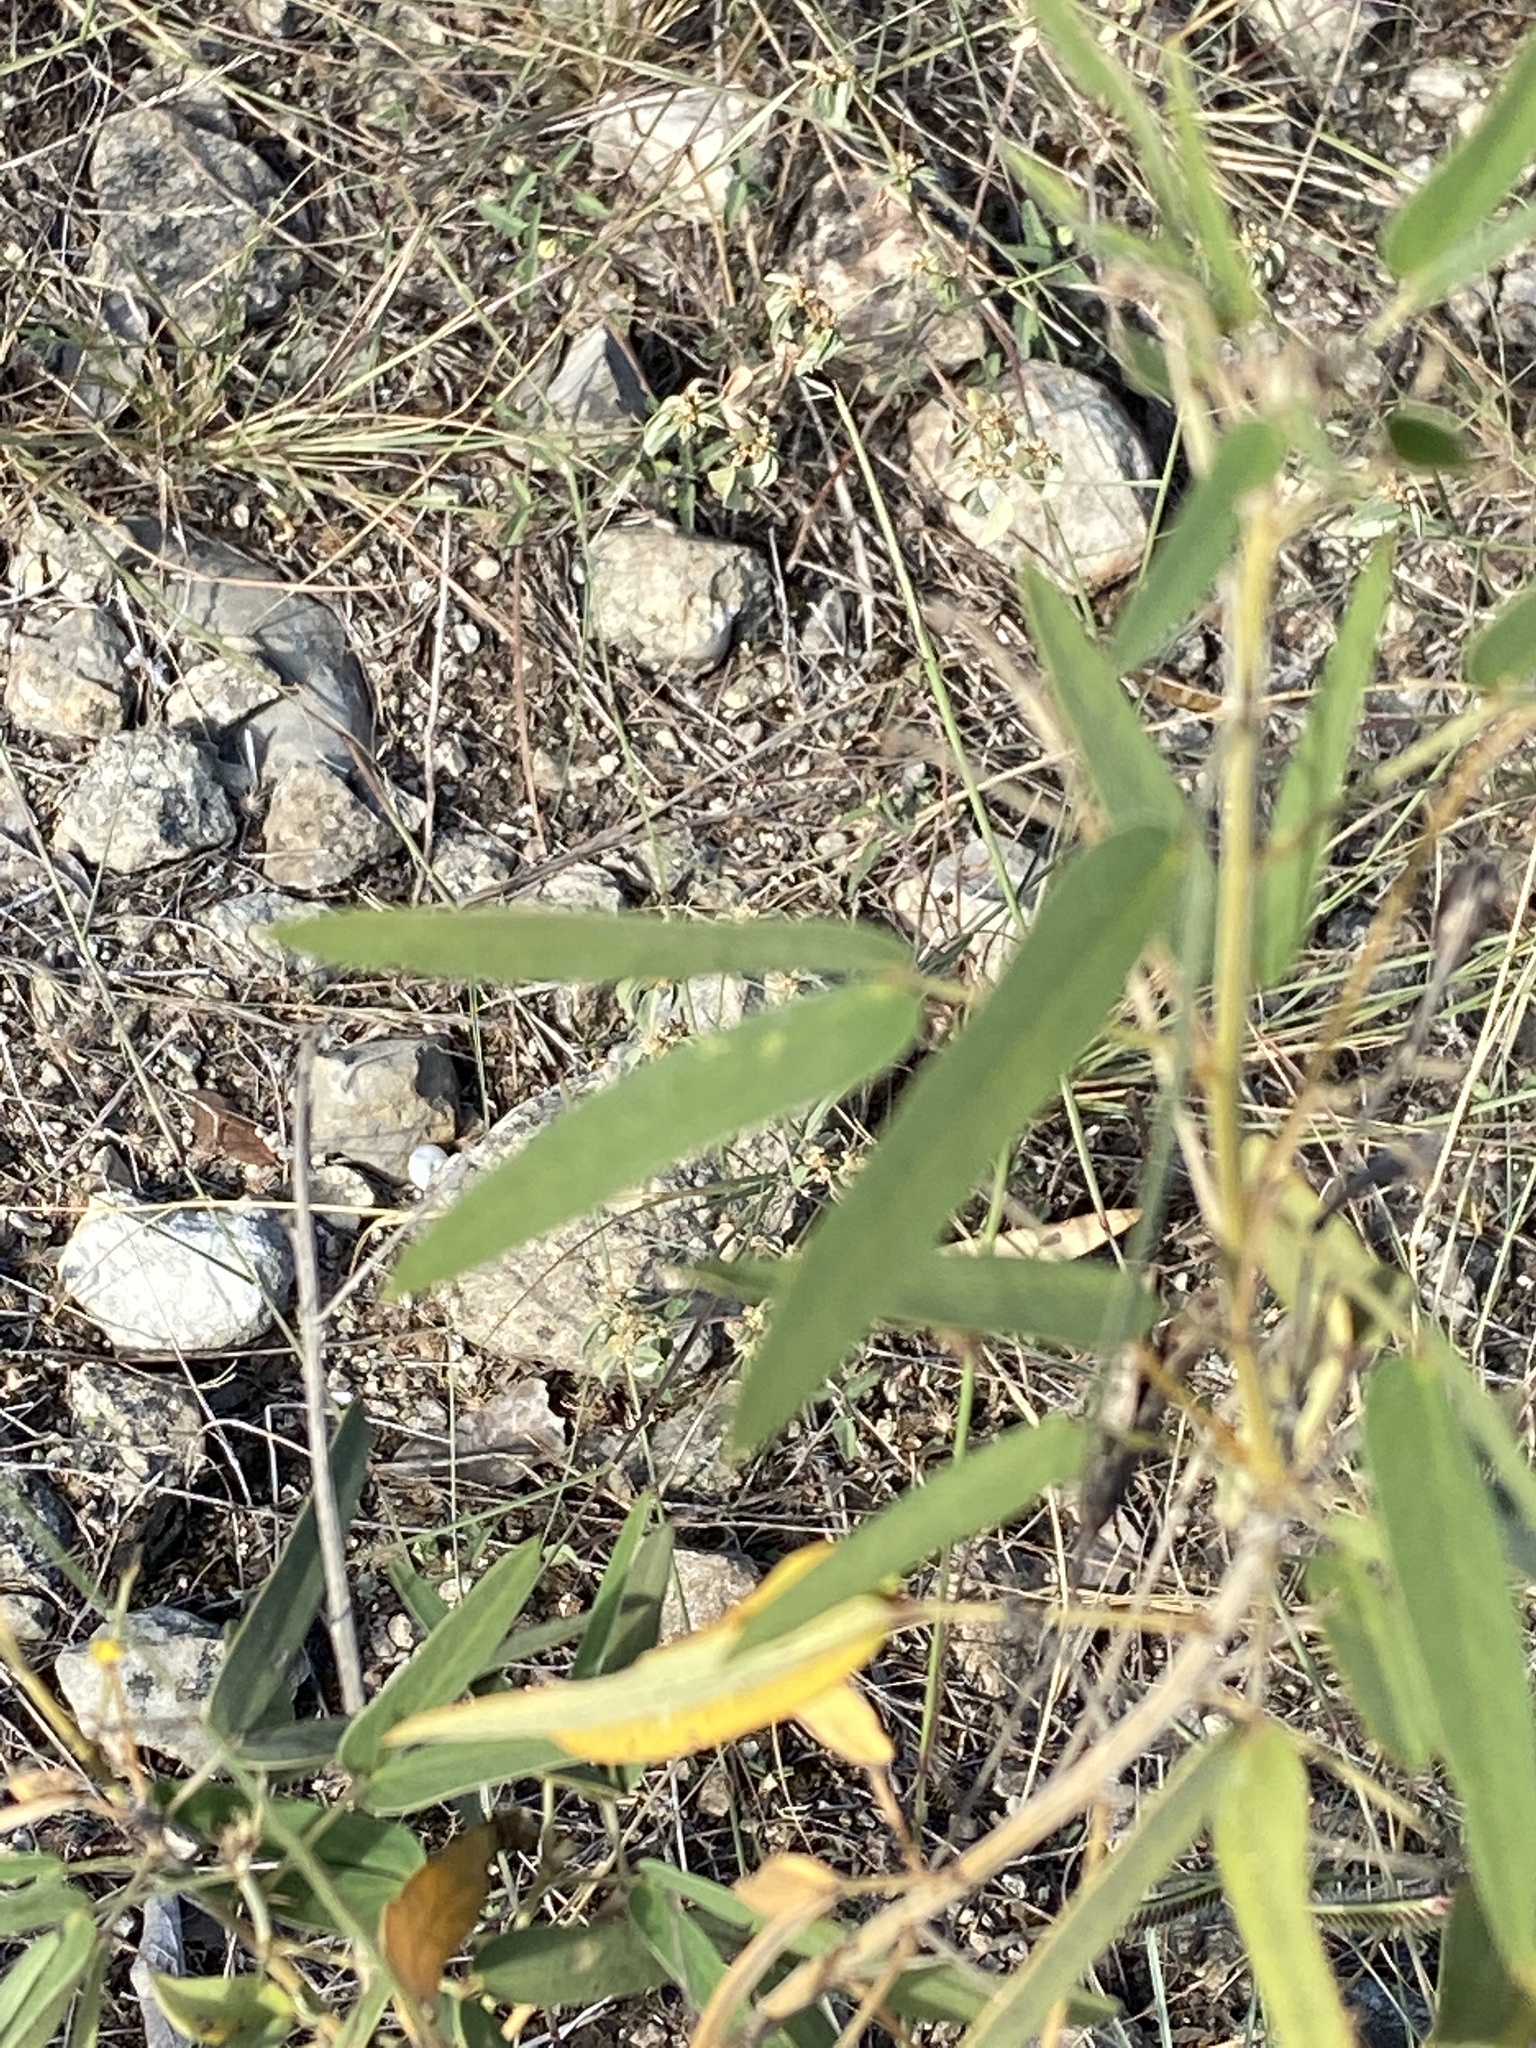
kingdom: Plantae
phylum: Tracheophyta
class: Magnoliopsida
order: Fabales
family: Fabaceae
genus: Senna
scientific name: Senna roemeriana
